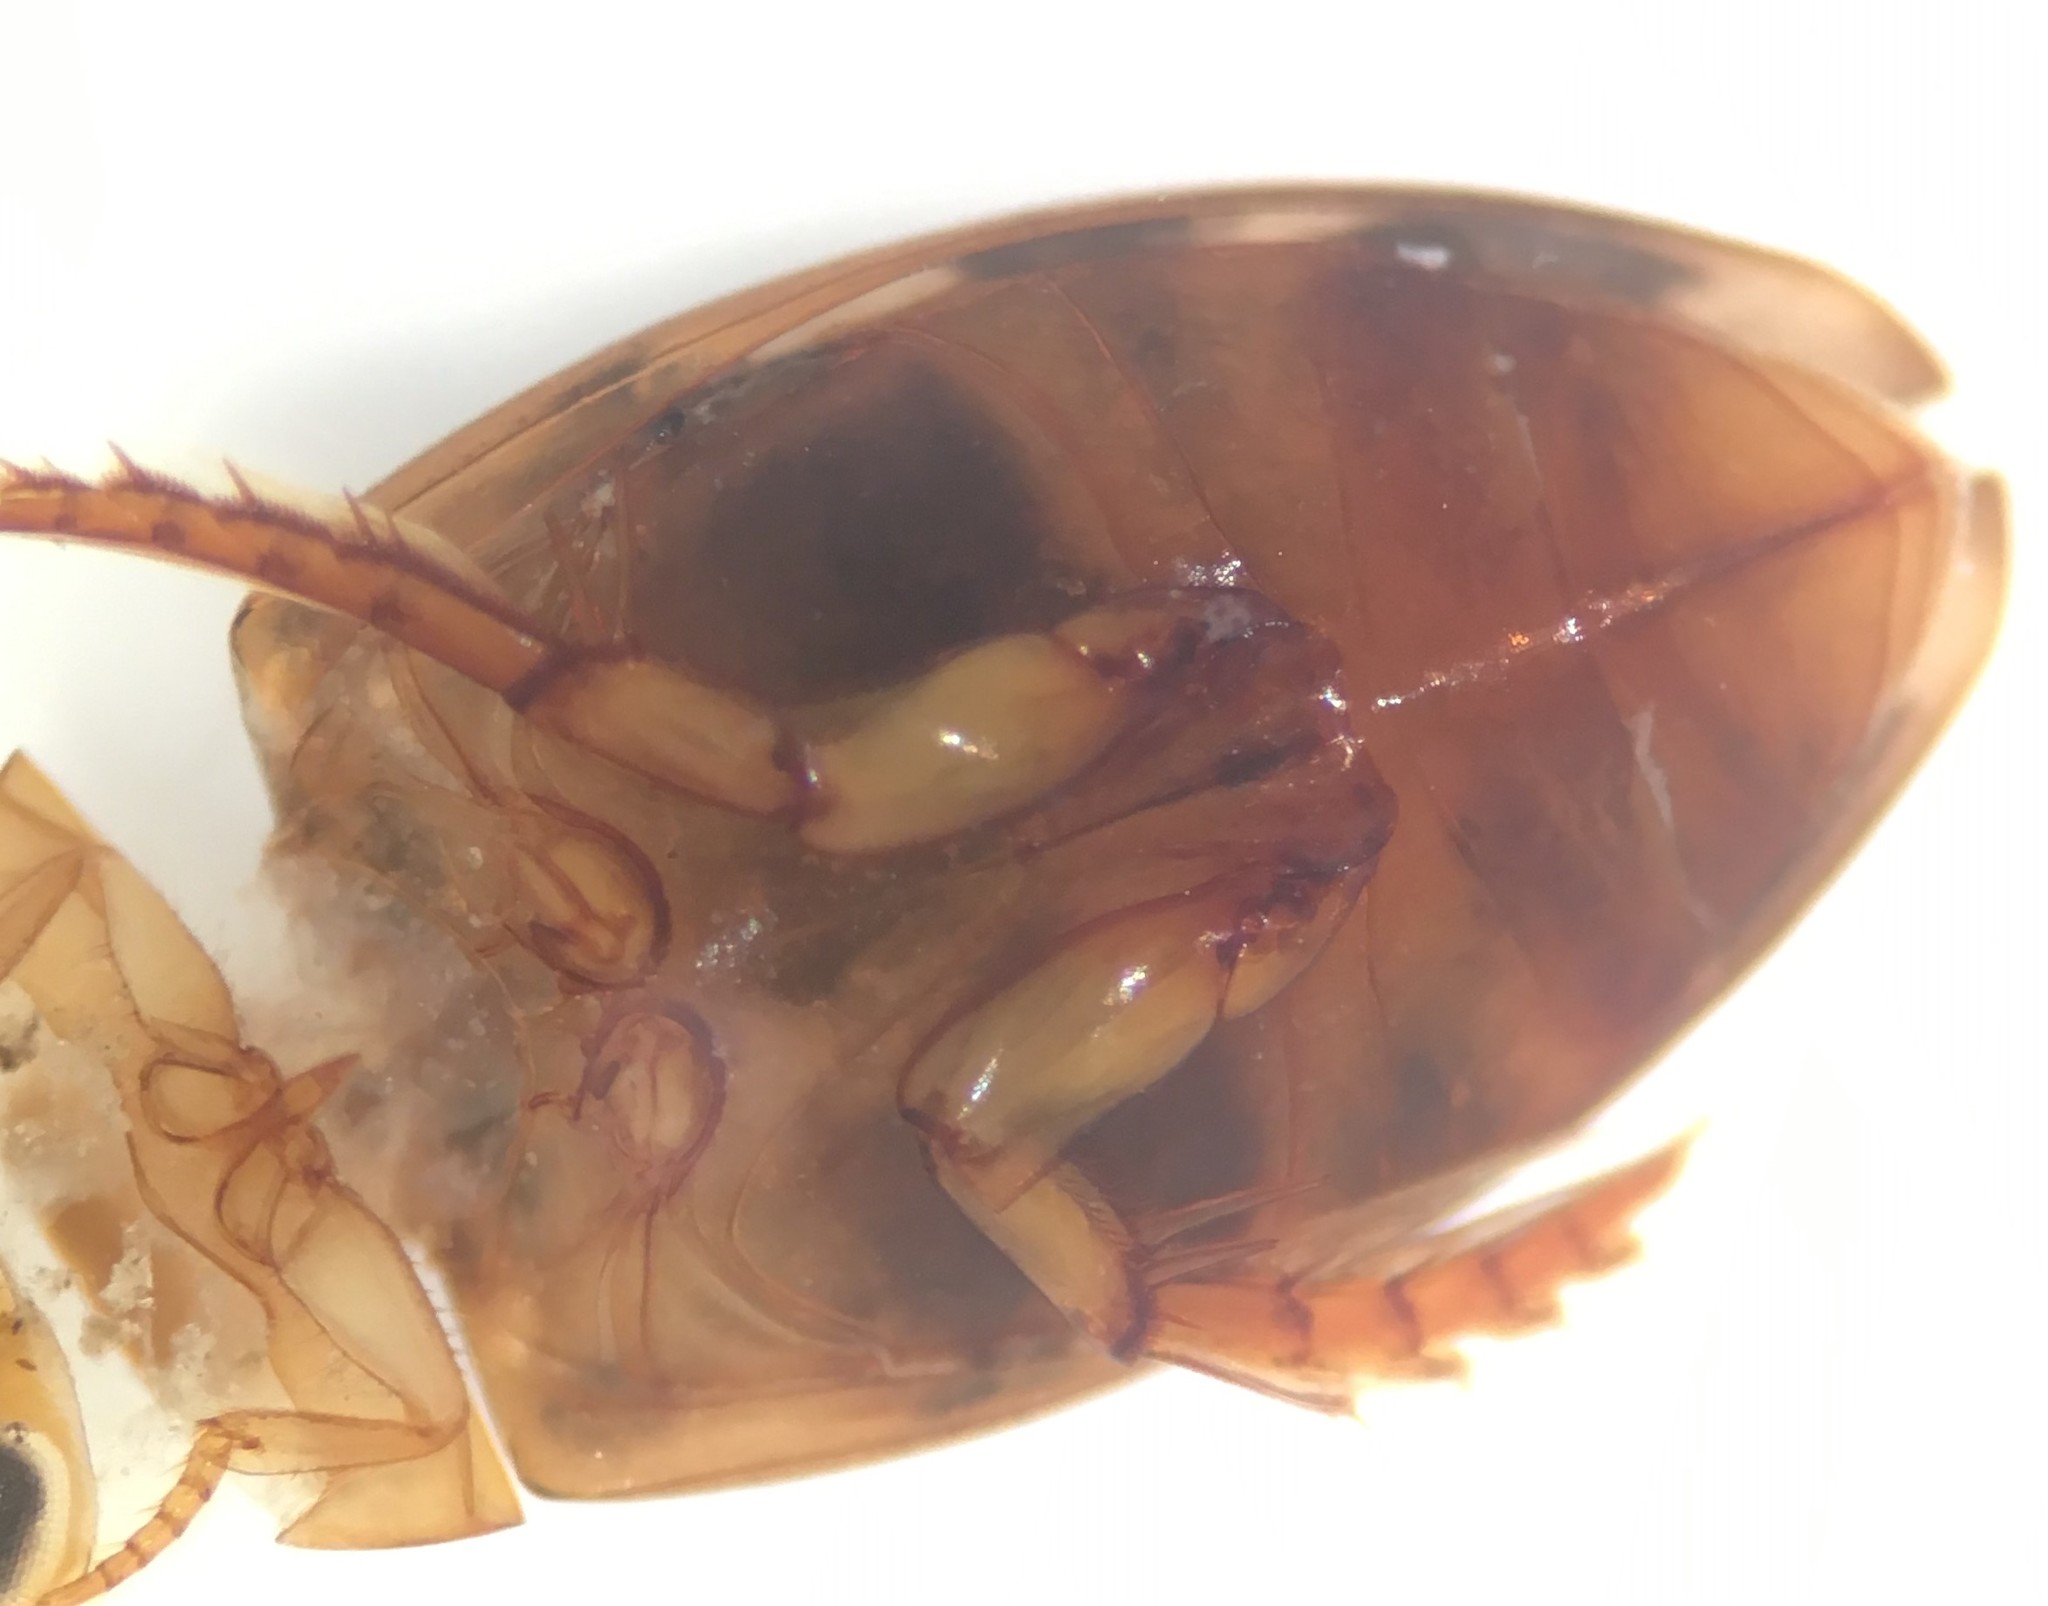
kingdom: Animalia
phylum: Arthropoda
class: Insecta
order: Coleoptera
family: Dytiscidae
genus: Laccophilus
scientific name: Laccophilus undatus
